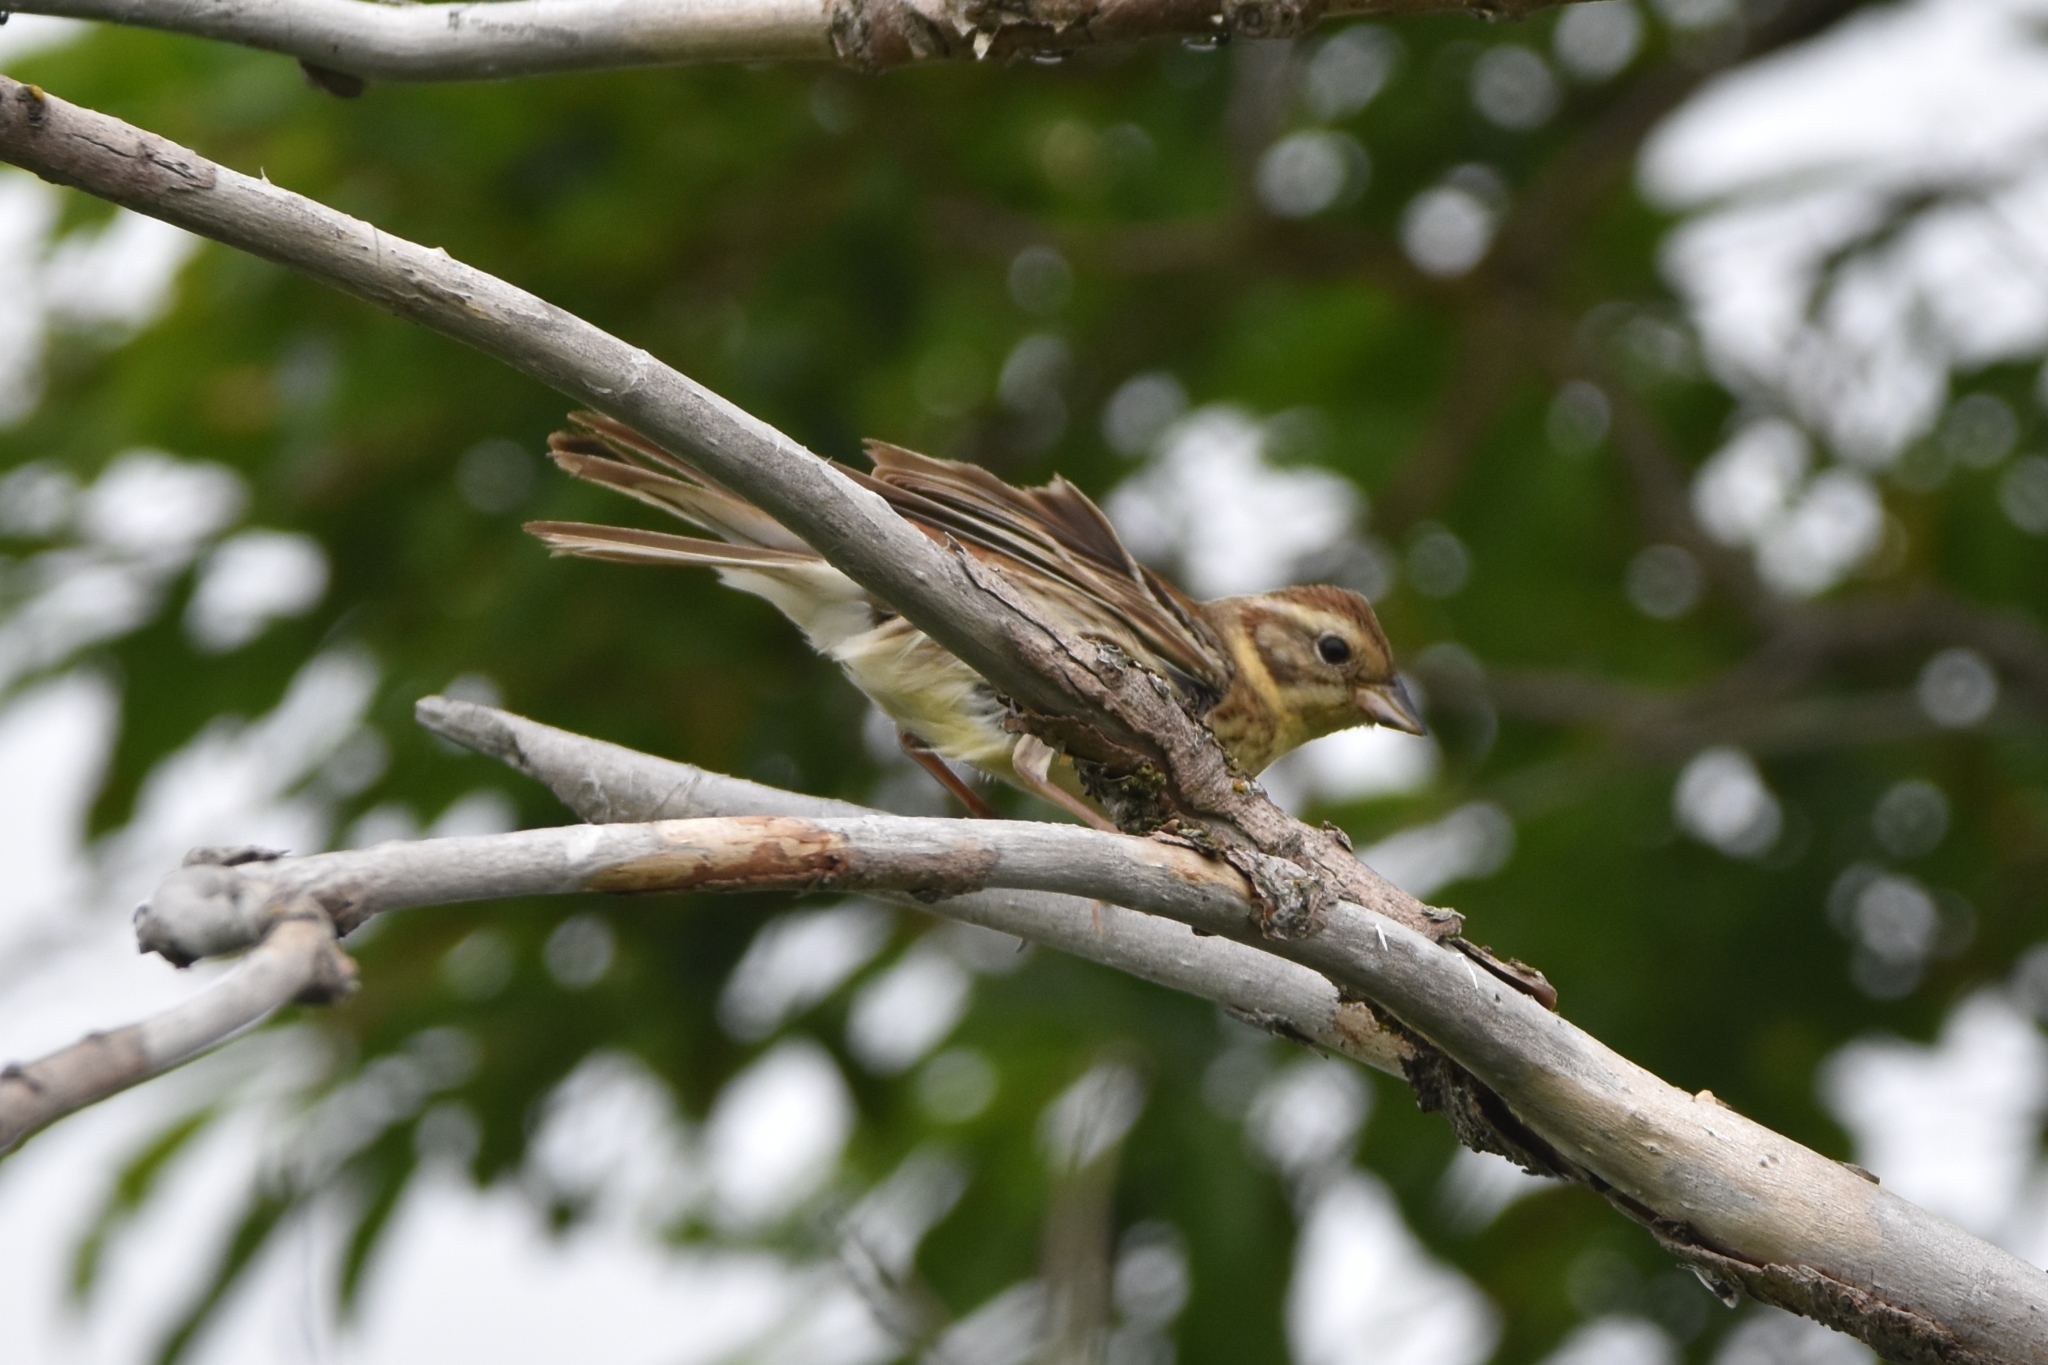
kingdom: Animalia
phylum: Chordata
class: Aves
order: Passeriformes
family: Emberizidae
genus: Emberiza
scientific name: Emberiza aureola
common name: Yellow-breasted bunting
